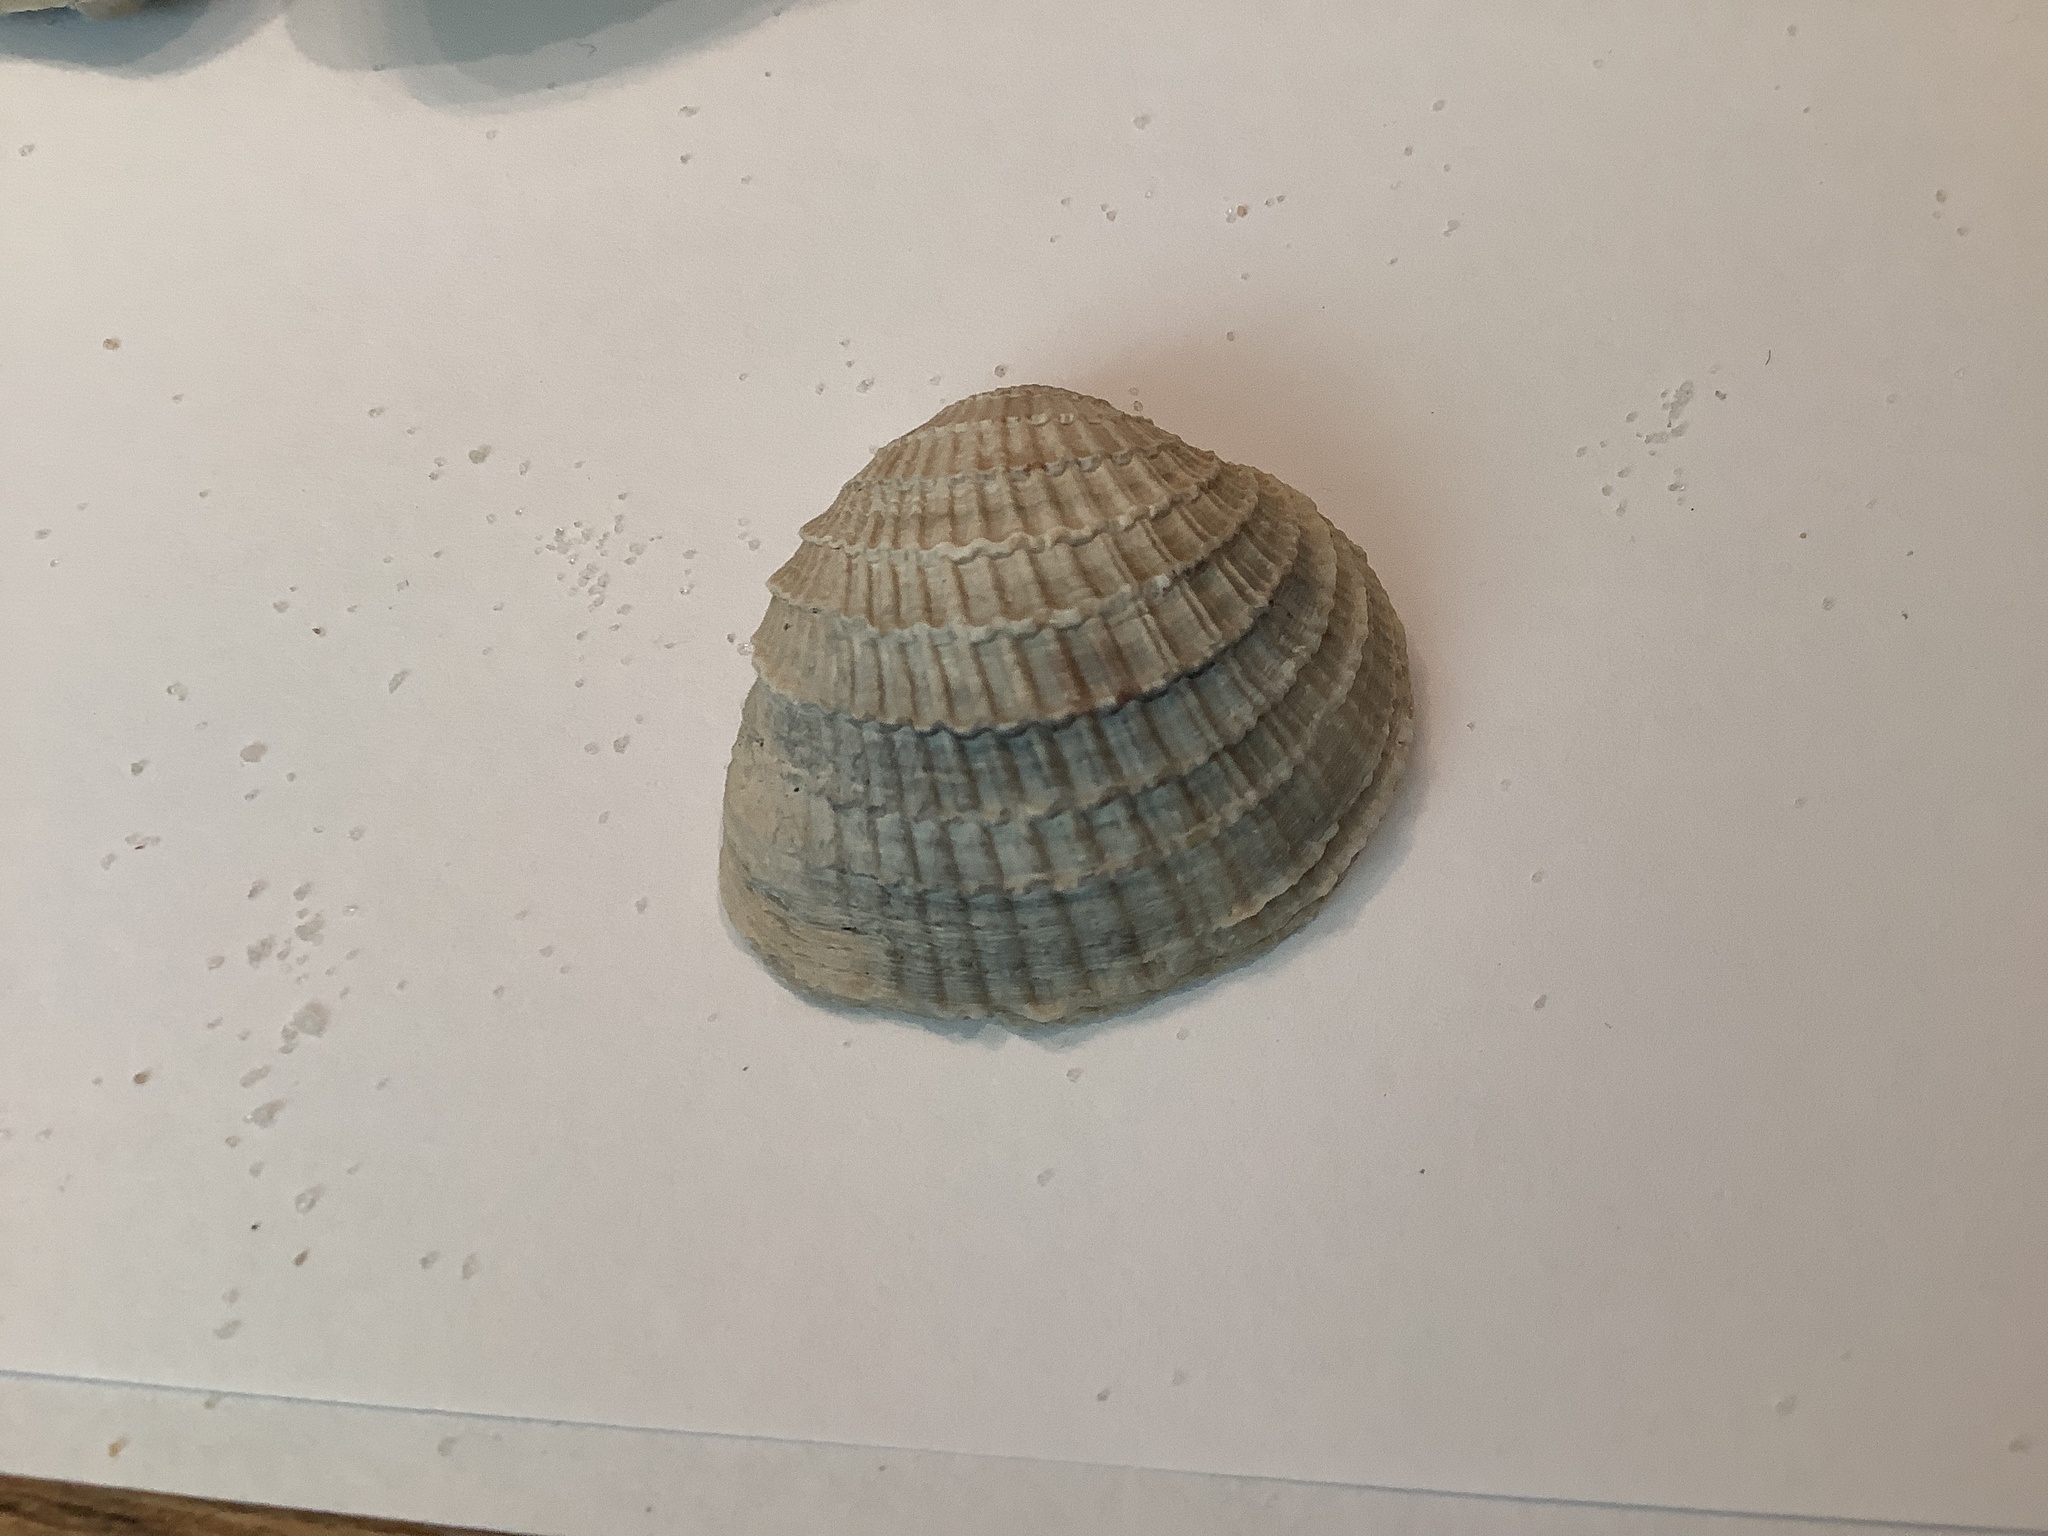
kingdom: Animalia
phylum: Mollusca
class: Bivalvia
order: Venerida
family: Veneridae
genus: Chione
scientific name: Chione elevata
